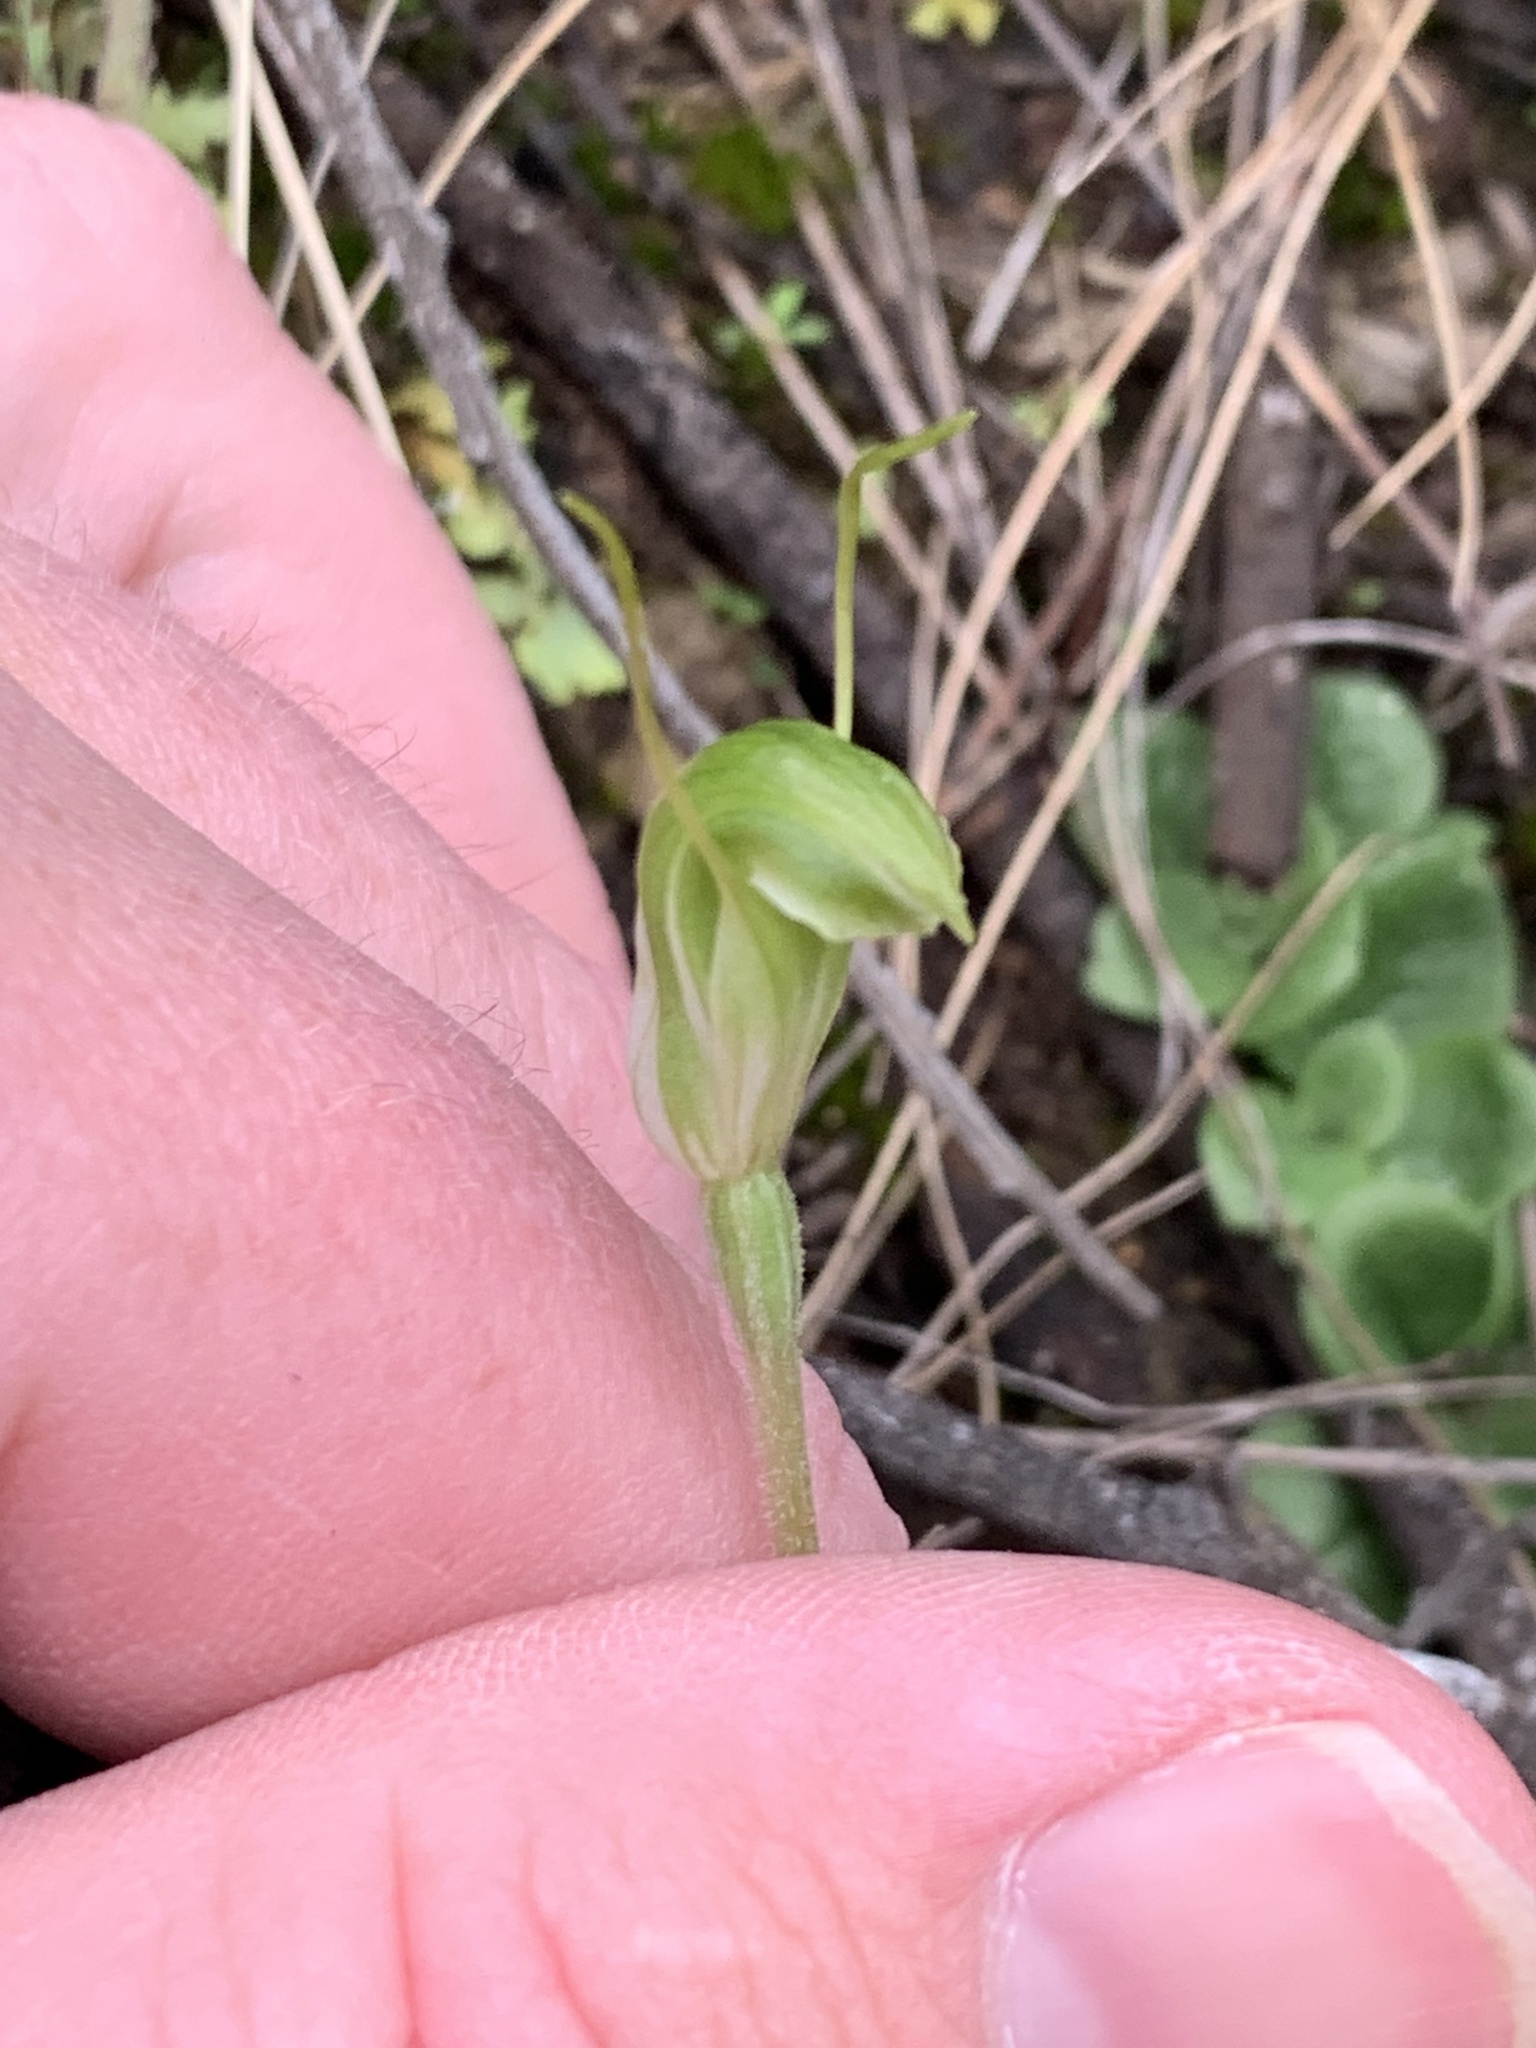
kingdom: Plantae
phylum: Tracheophyta
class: Liliopsida
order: Asparagales
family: Orchidaceae
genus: Pterostylis
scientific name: Pterostylis nana
